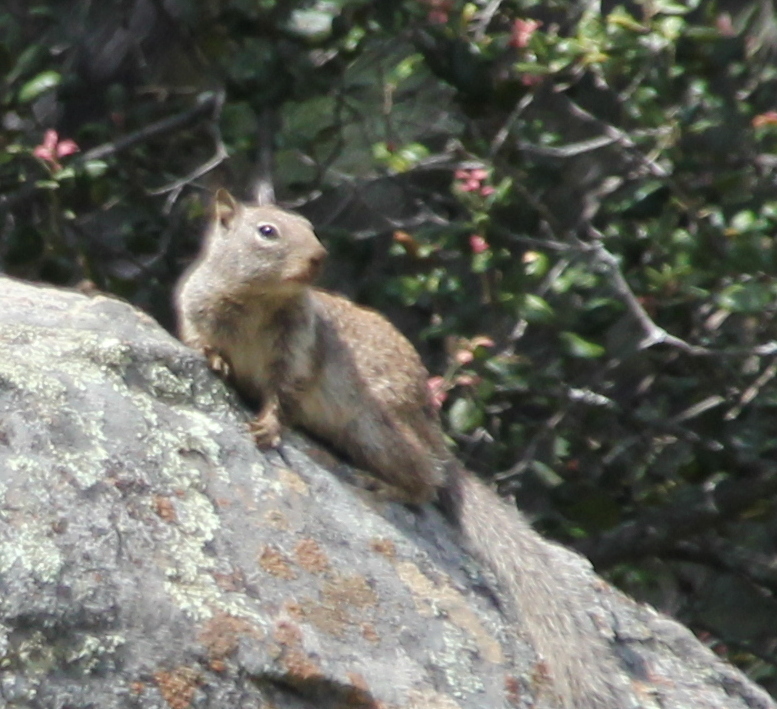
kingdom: Animalia
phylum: Chordata
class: Mammalia
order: Rodentia
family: Sciuridae
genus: Otospermophilus
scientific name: Otospermophilus beecheyi
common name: California ground squirrel
